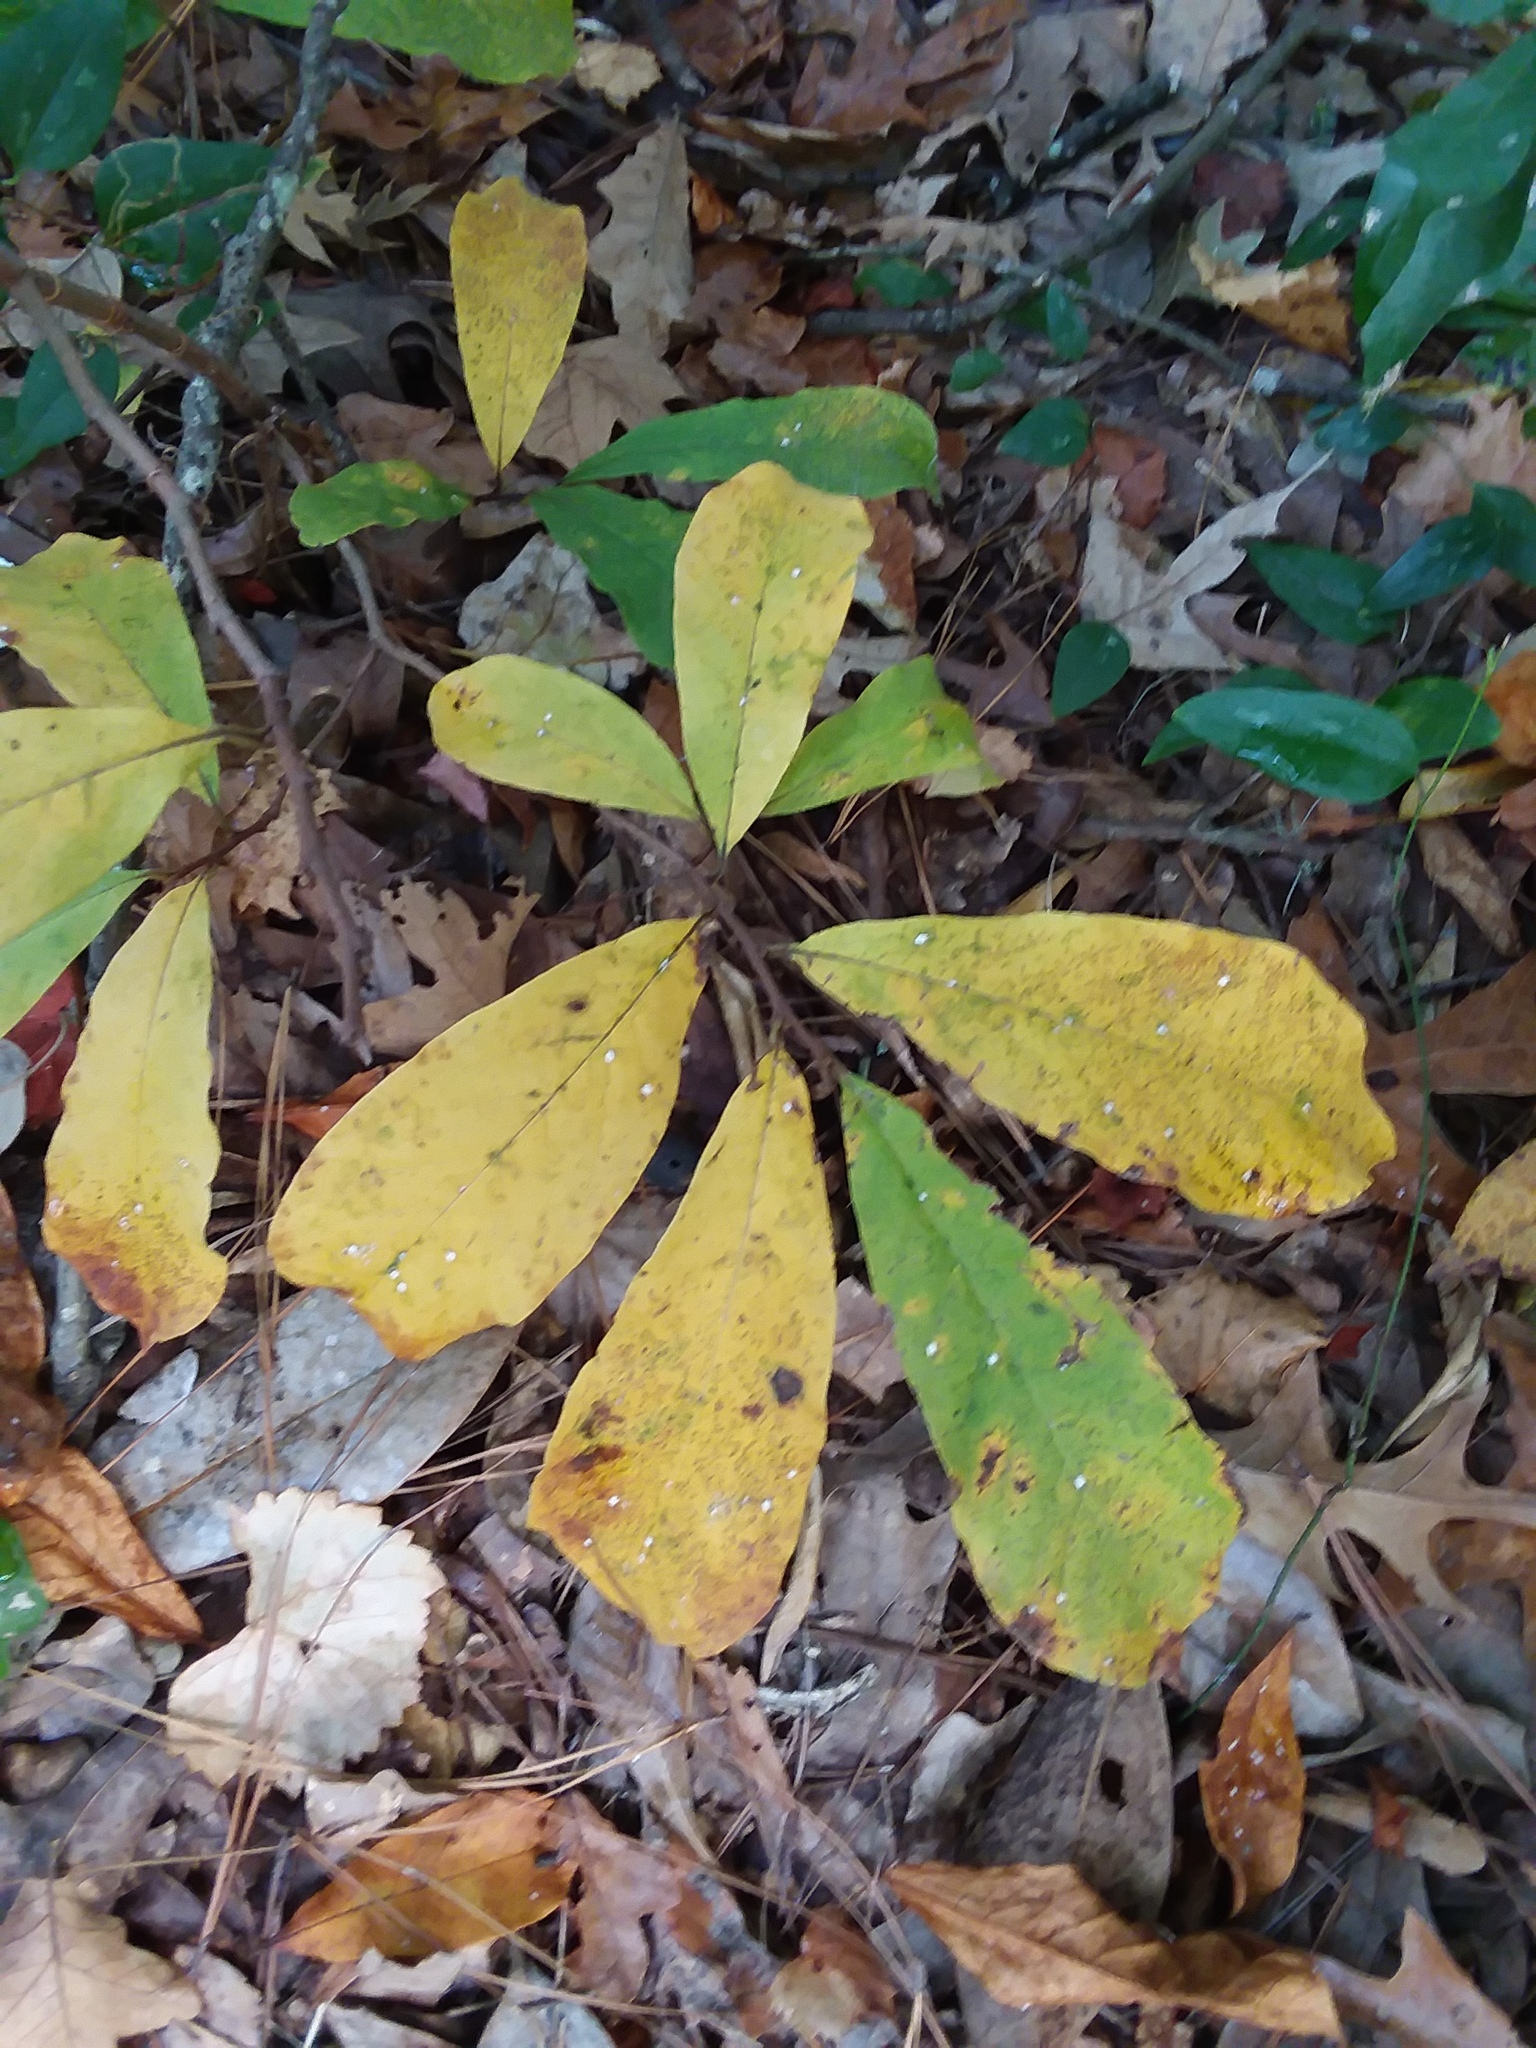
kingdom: Animalia
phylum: Arthropoda
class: Insecta
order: Hemiptera
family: Diaspididae
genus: Pseudaulacaspis
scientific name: Pseudaulacaspis cockerelli
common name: False oleander scale
